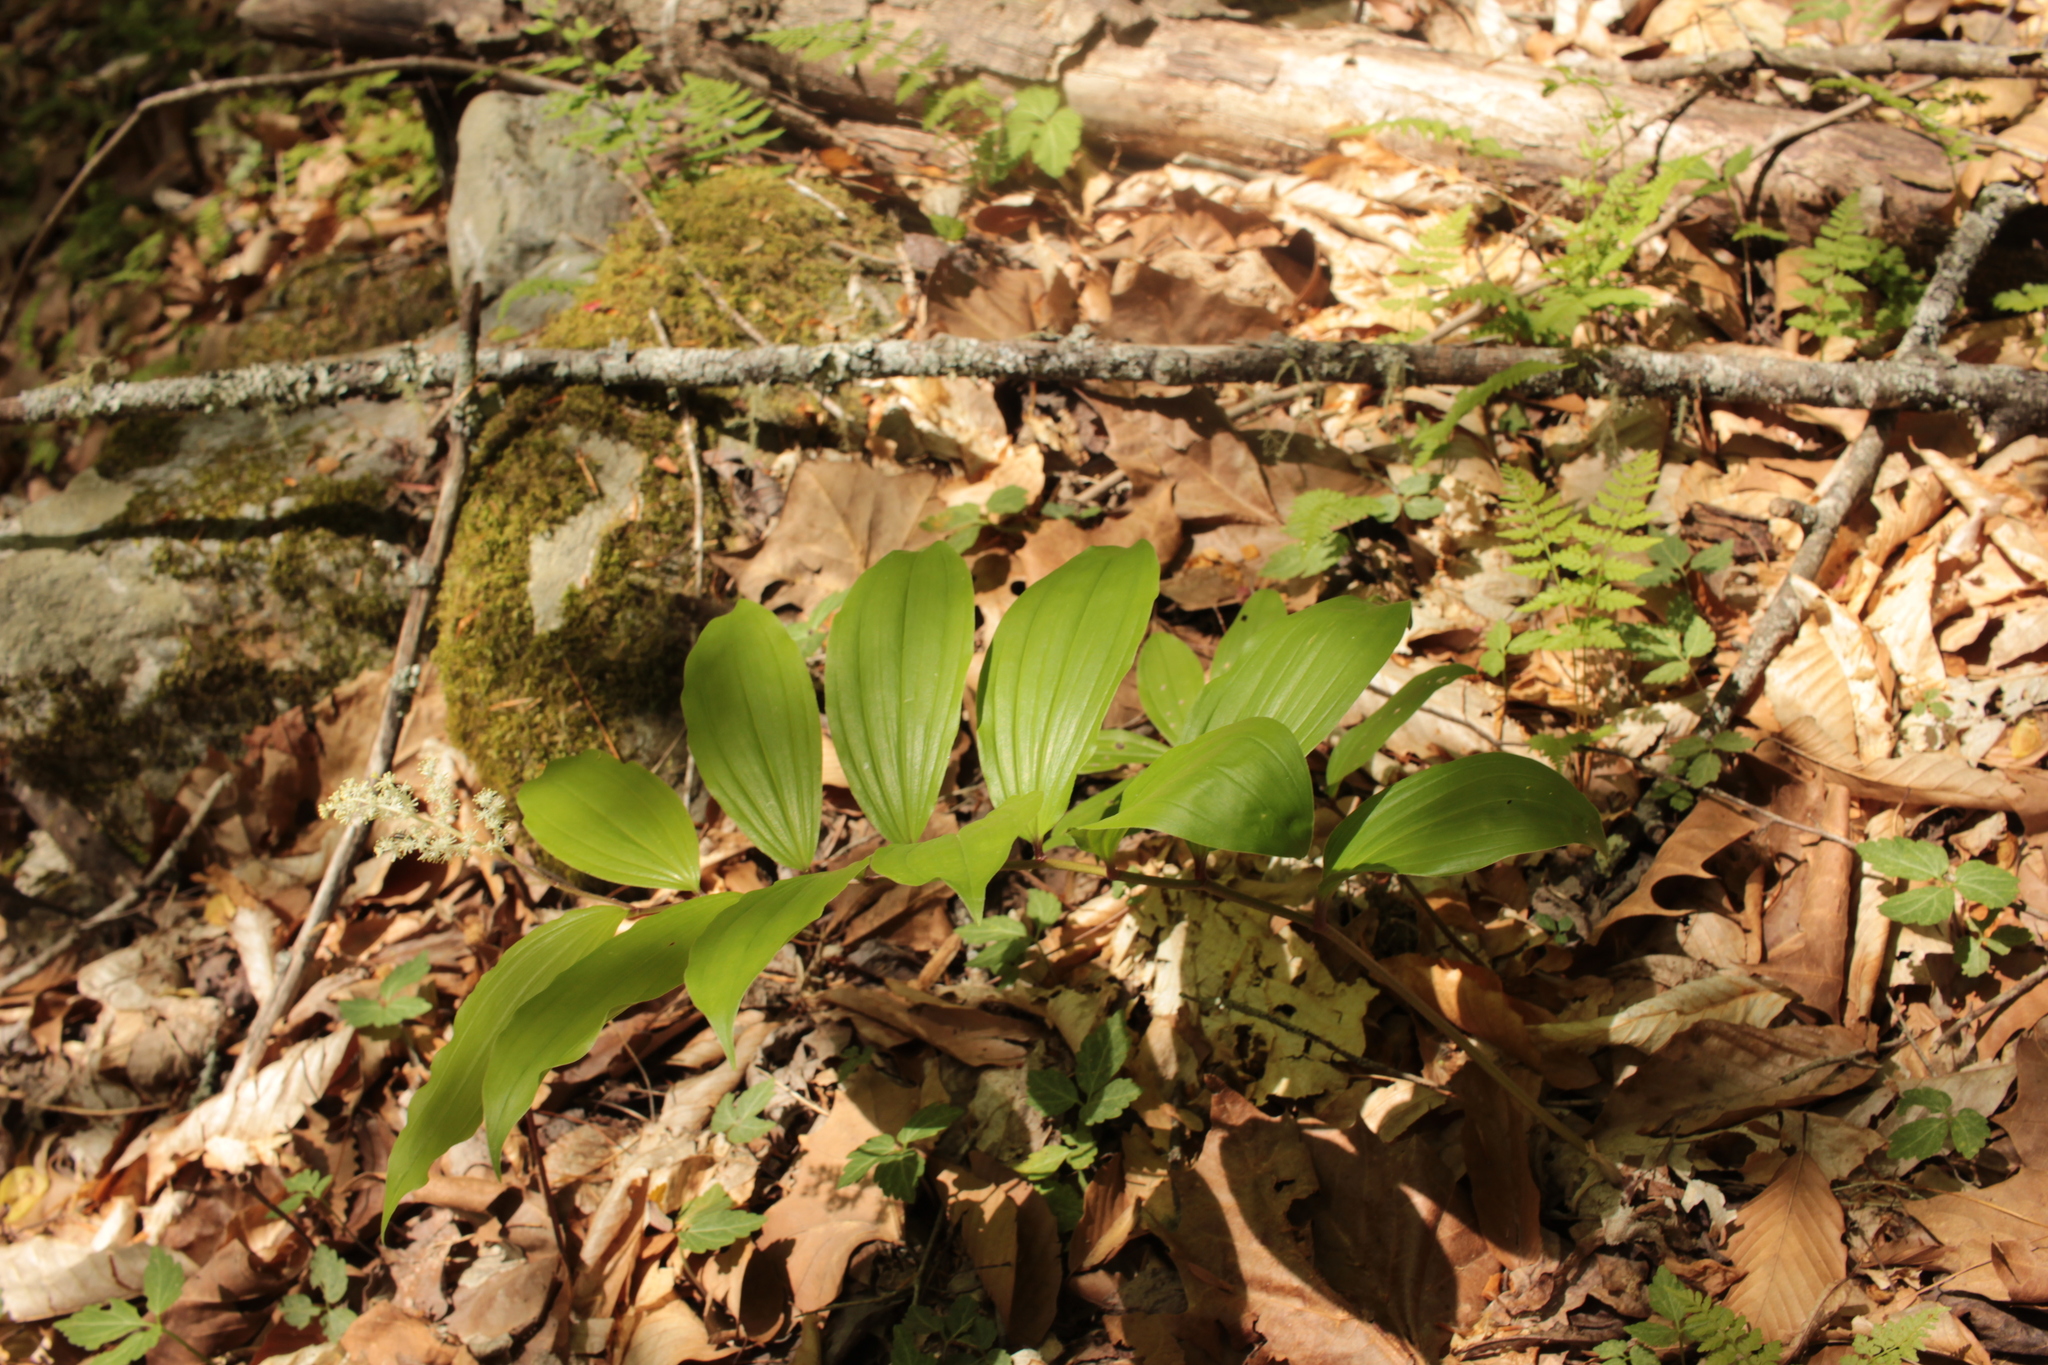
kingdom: Plantae
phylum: Tracheophyta
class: Liliopsida
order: Asparagales
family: Asparagaceae
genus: Maianthemum
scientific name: Maianthemum racemosum
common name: False spikenard
